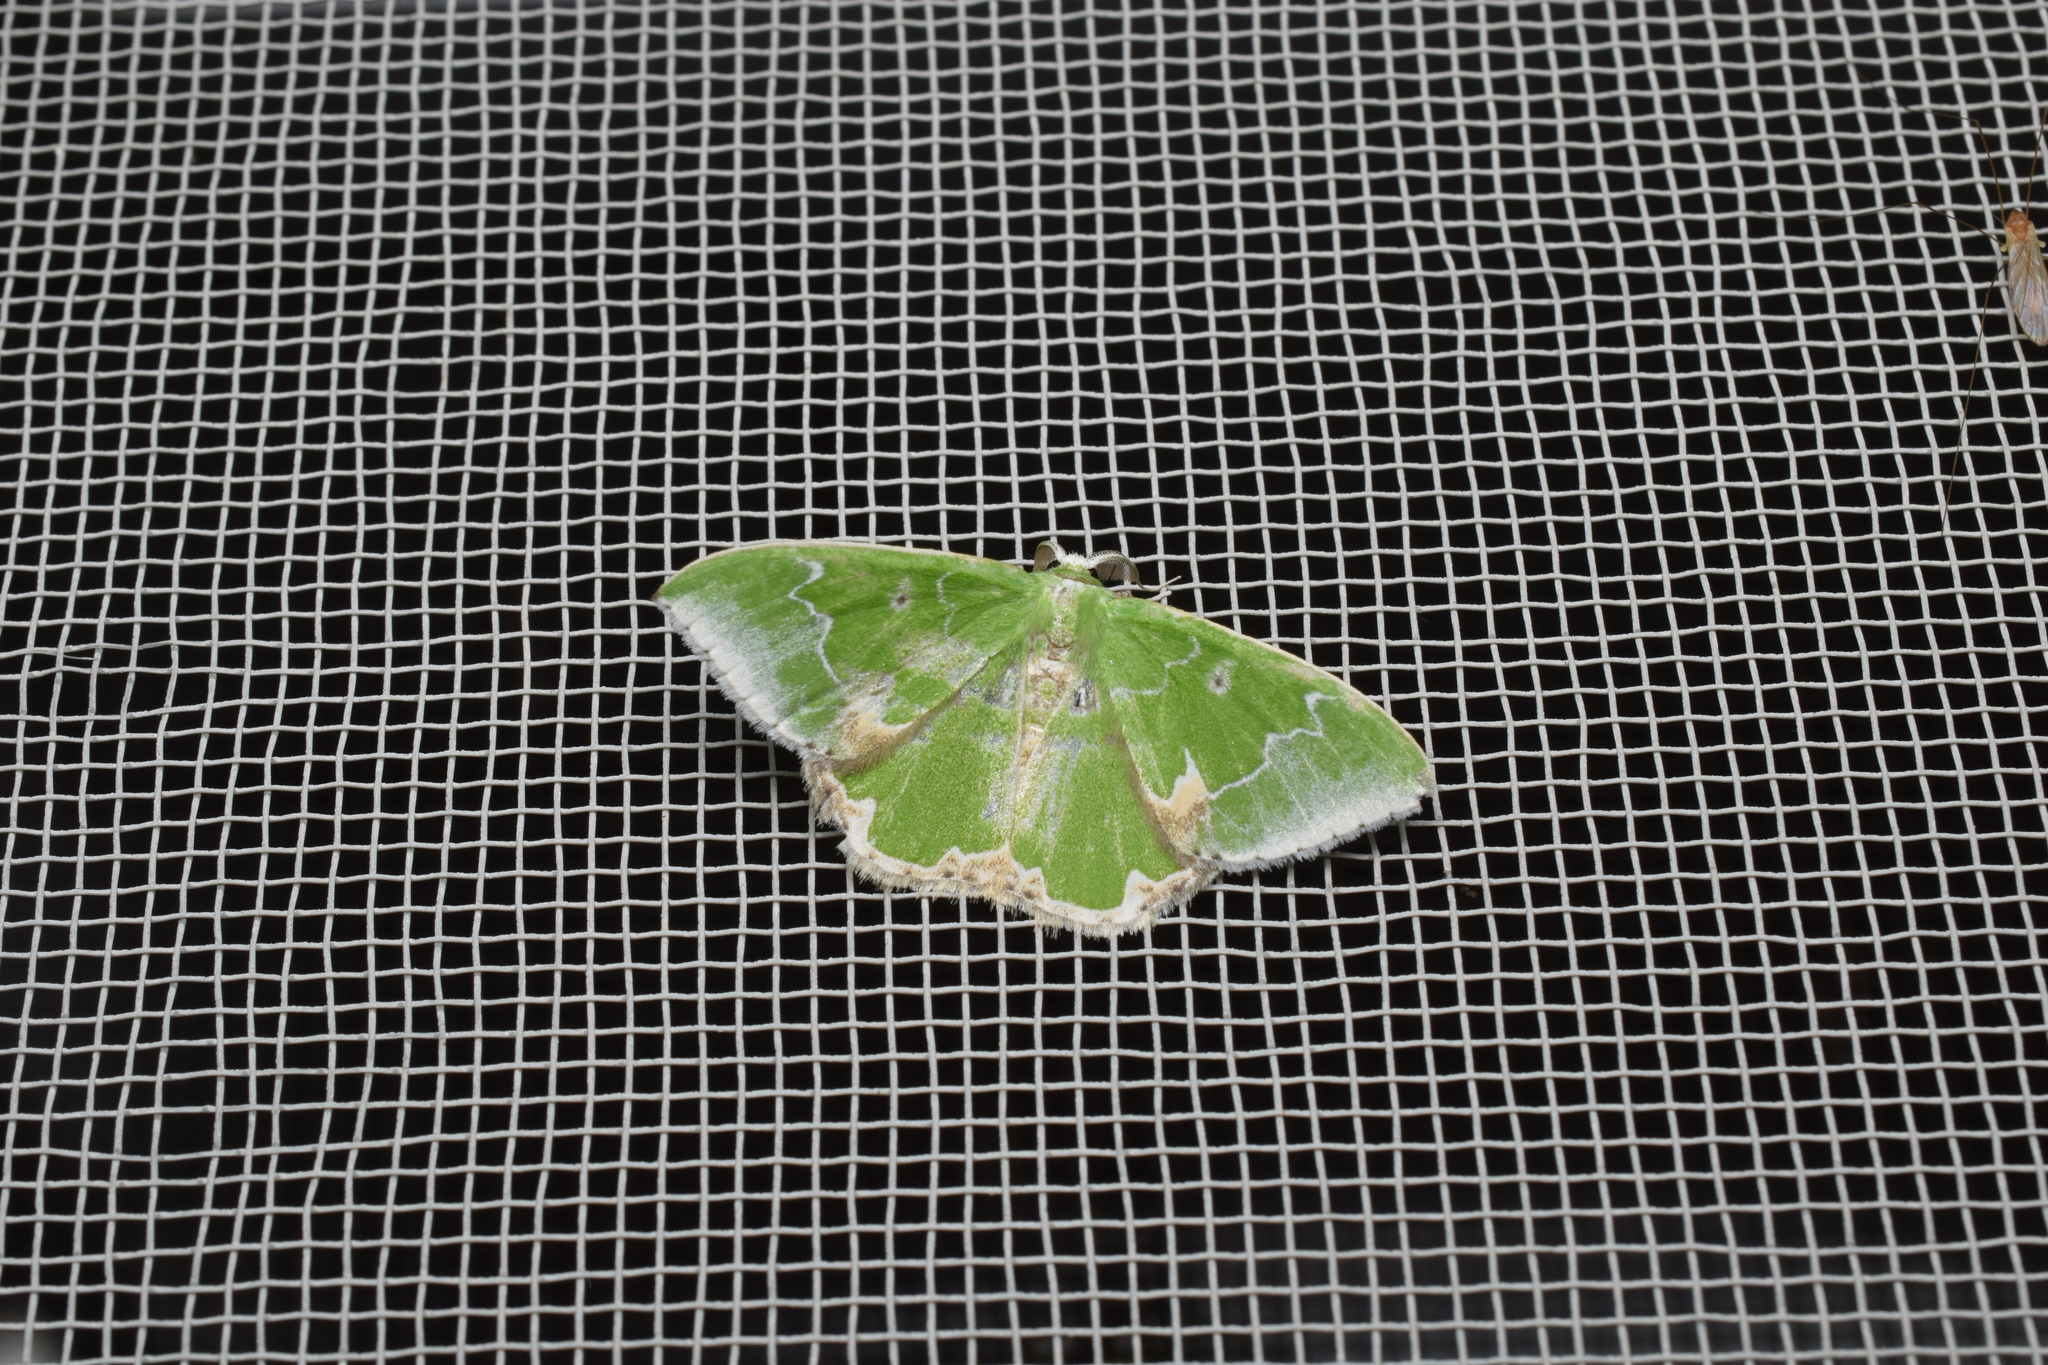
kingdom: Animalia
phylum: Arthropoda
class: Insecta
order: Lepidoptera
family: Geometridae
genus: Comibaena
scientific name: Comibaena argentataria
